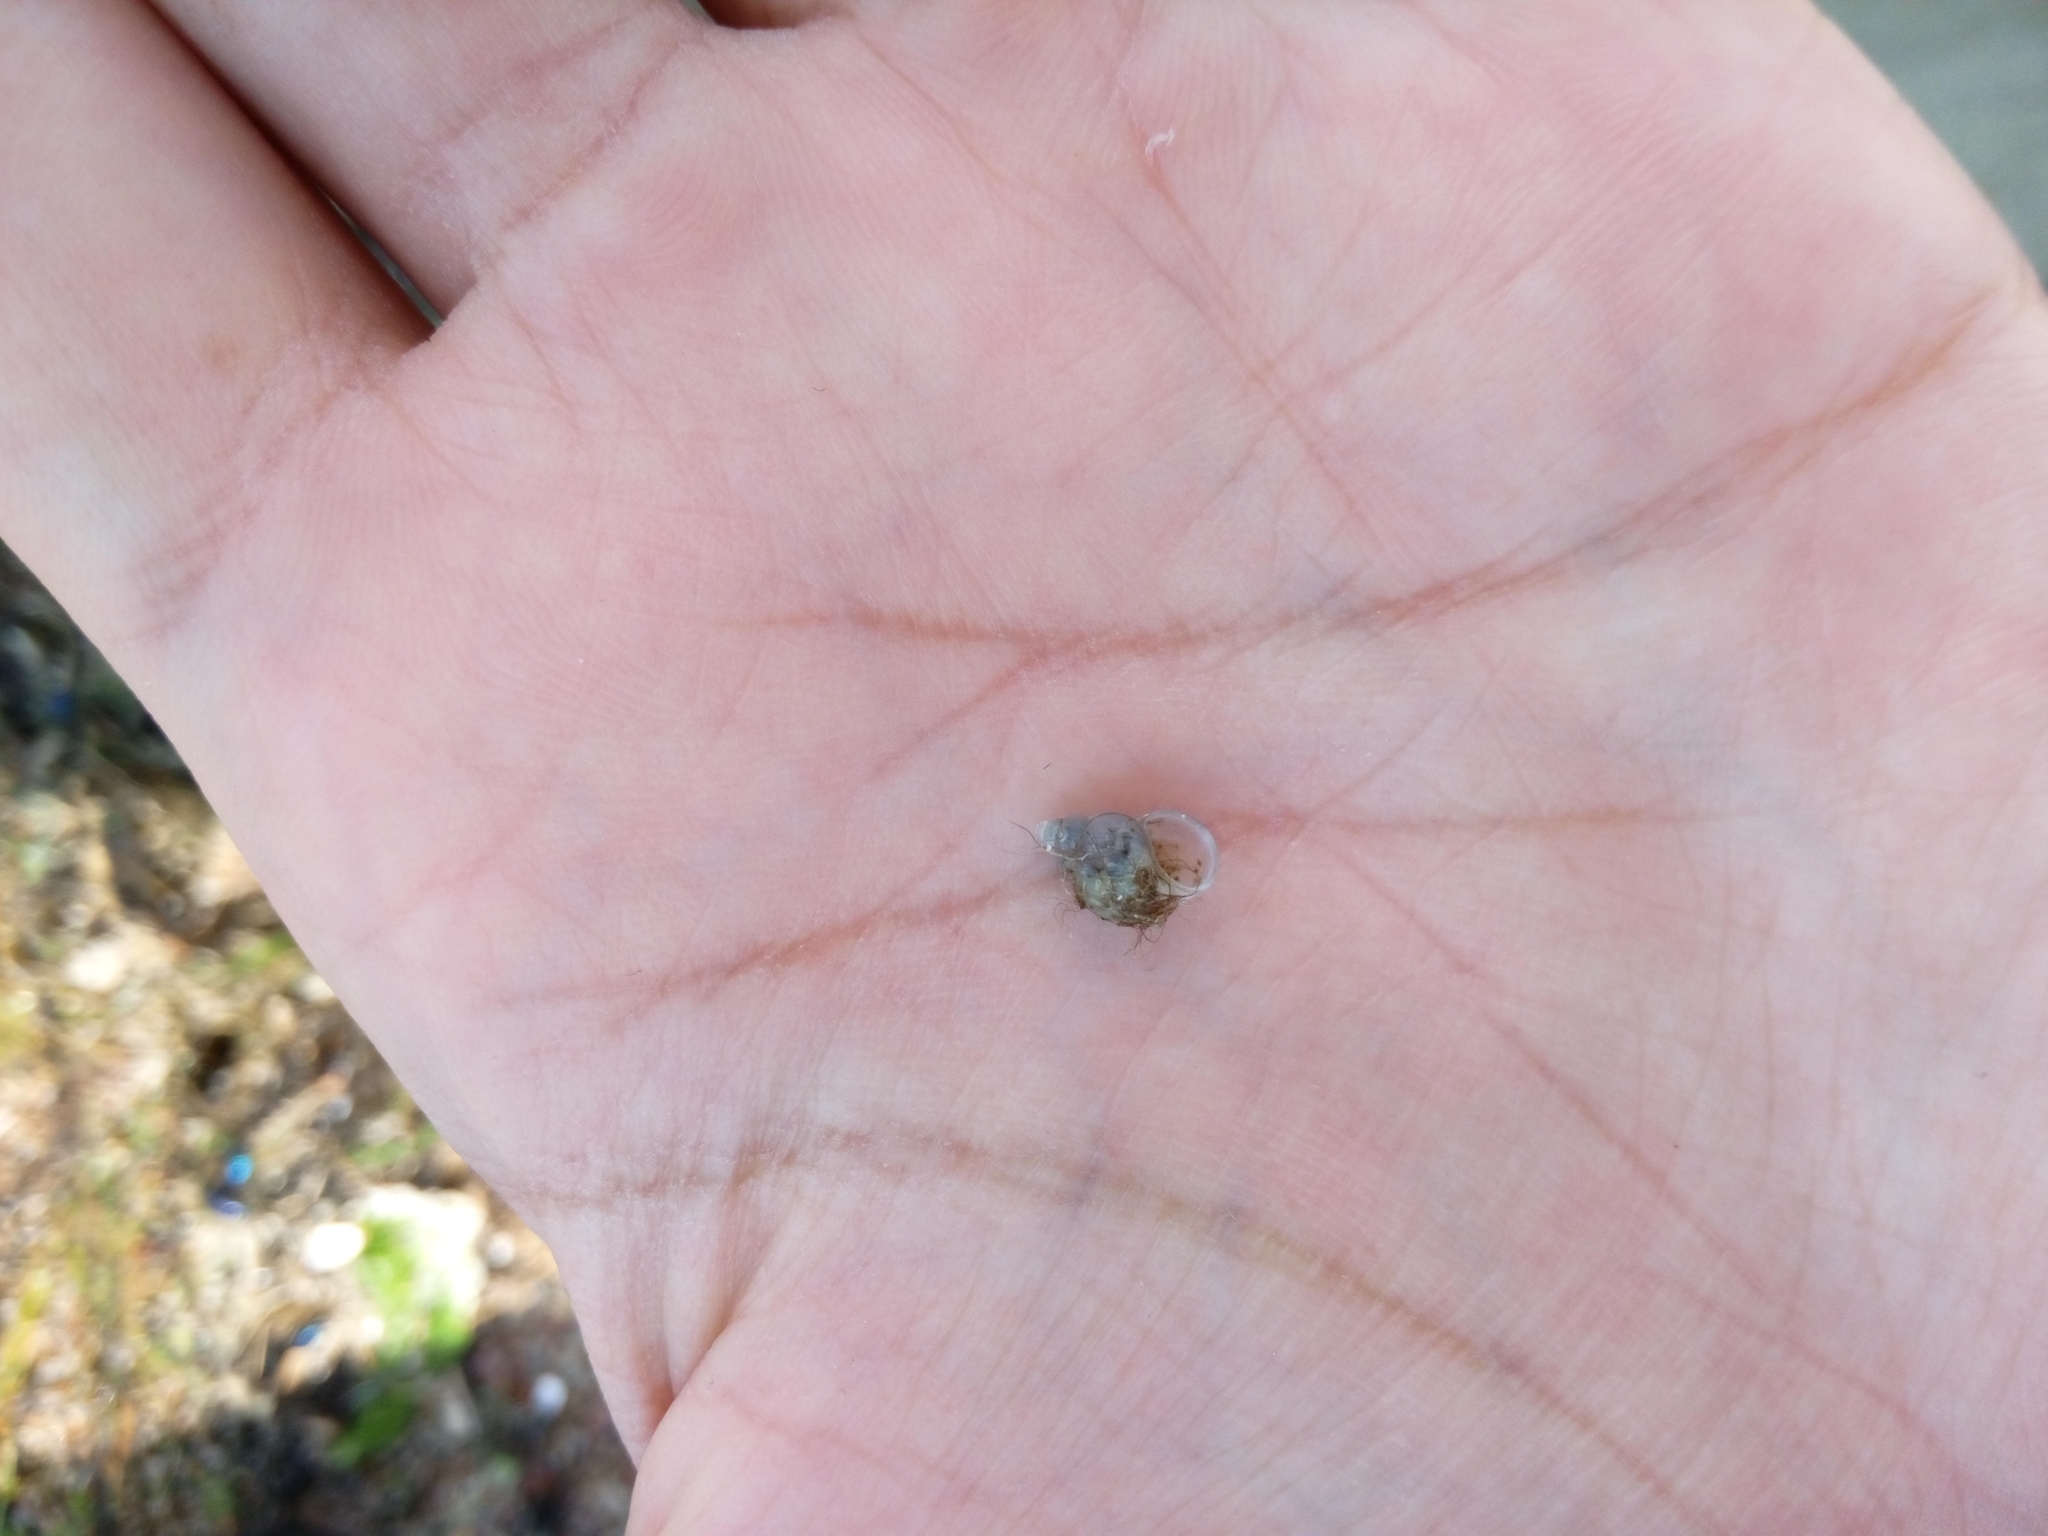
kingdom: Animalia
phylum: Mollusca
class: Gastropoda
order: Littorinimorpha
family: Bithyniidae
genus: Bithynia
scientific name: Bithynia tentaculata
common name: Common bithynia
